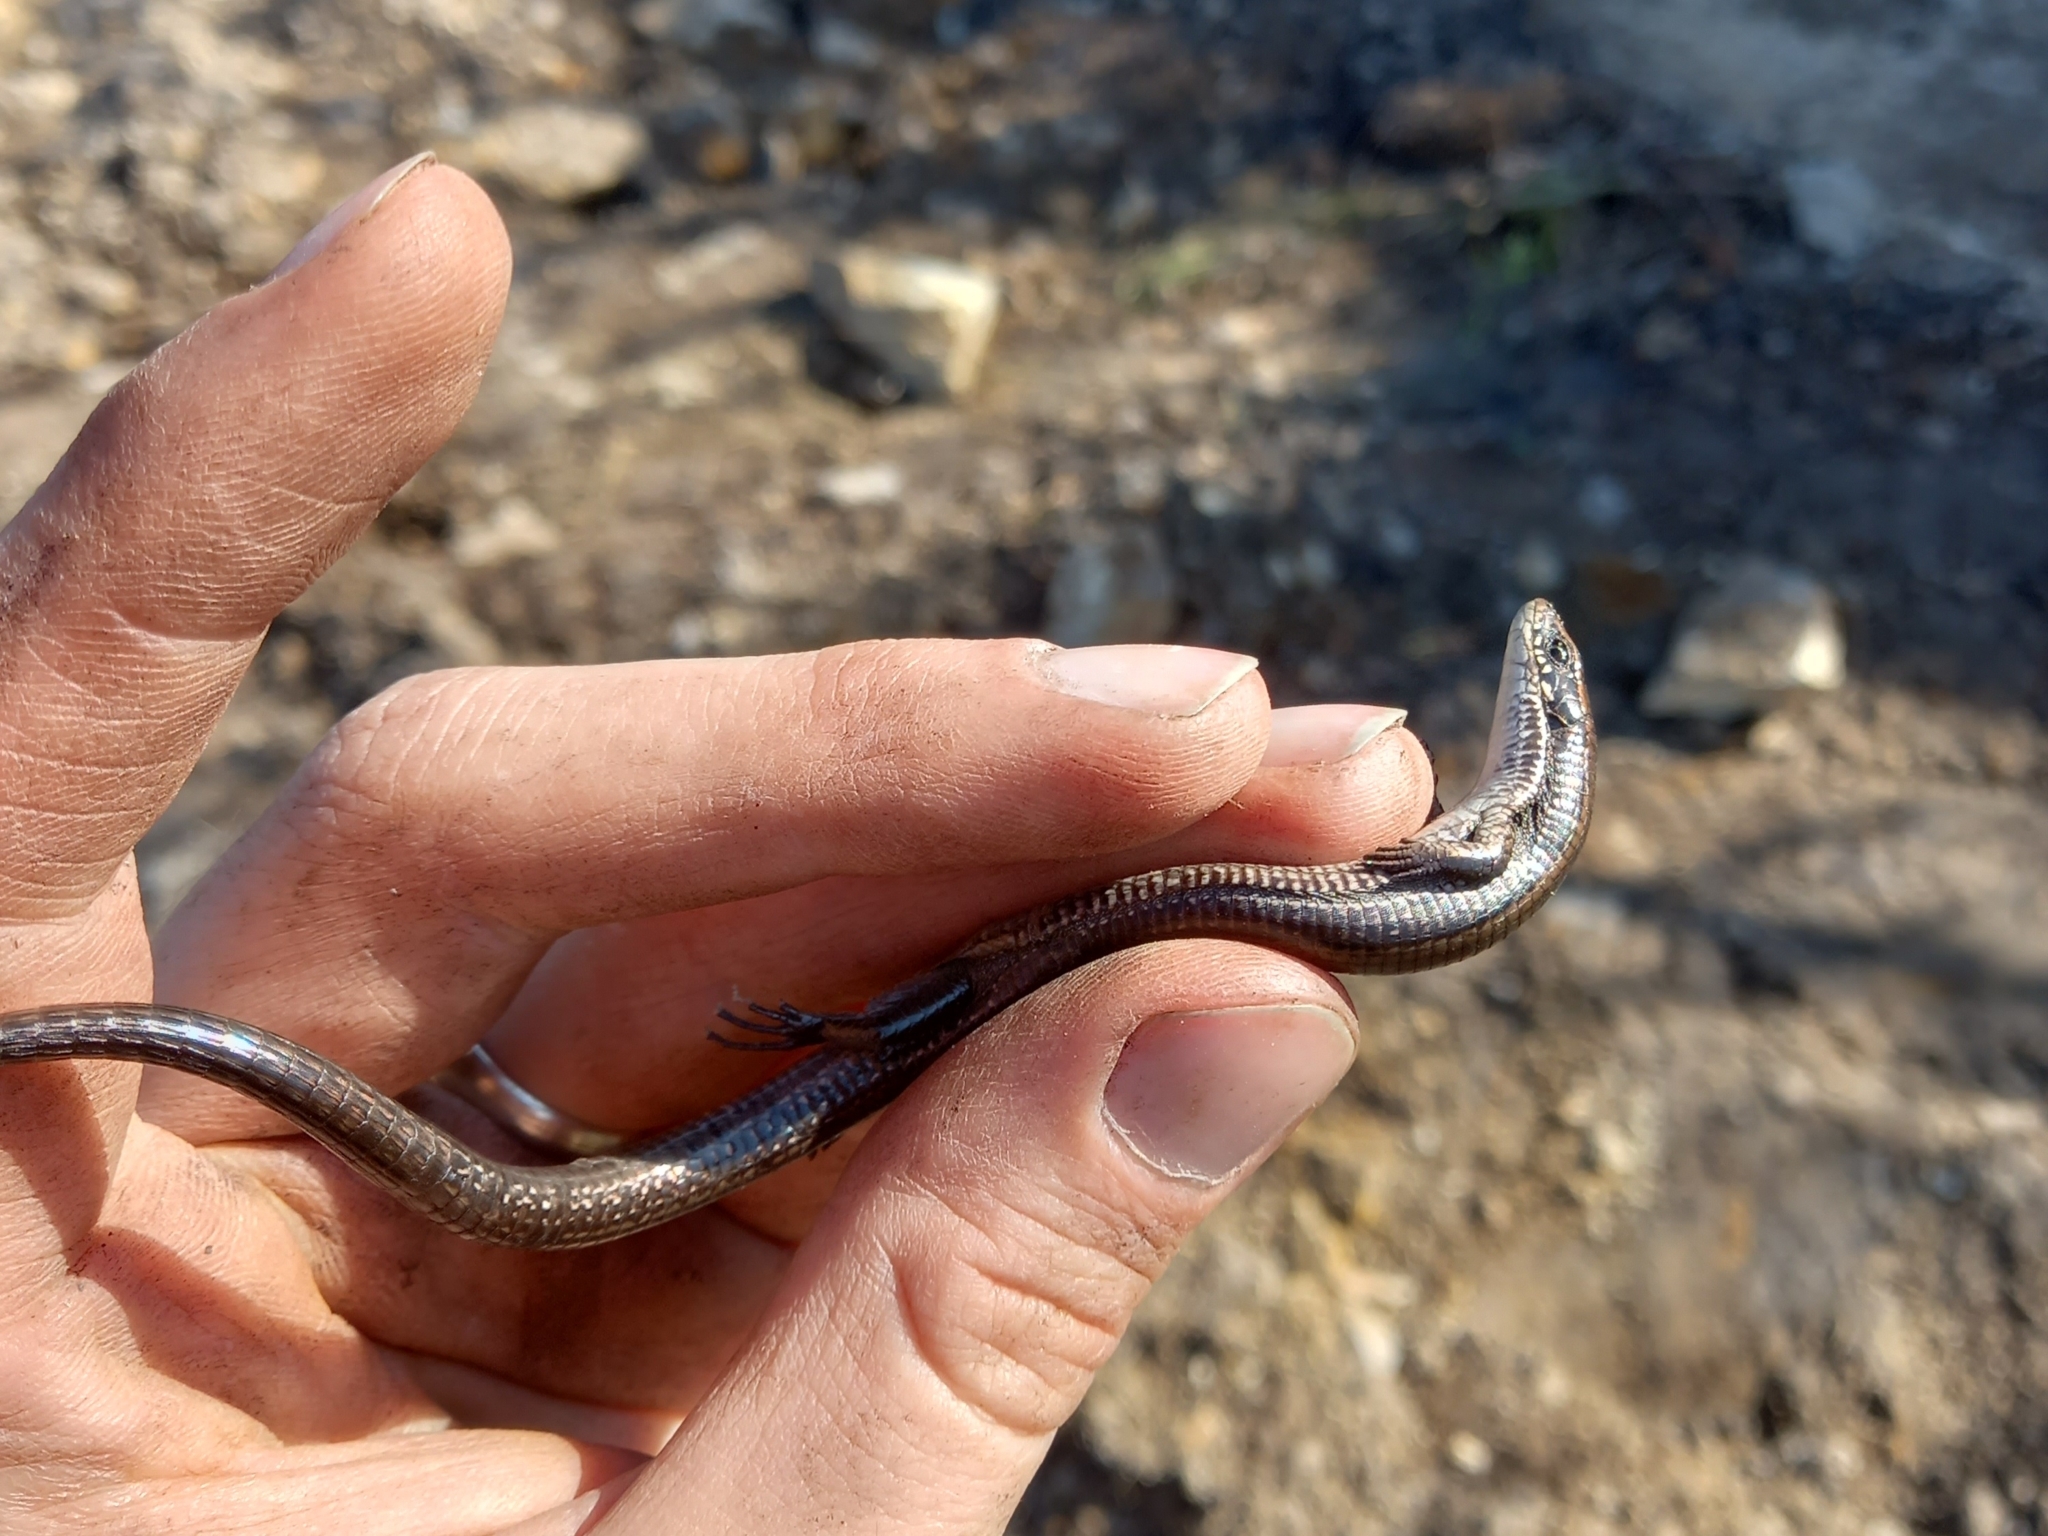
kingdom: Animalia
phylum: Chordata
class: Squamata
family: Gerrhosauridae
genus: Tetradactylus
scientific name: Tetradactylus seps
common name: Five-toed whip lizard
